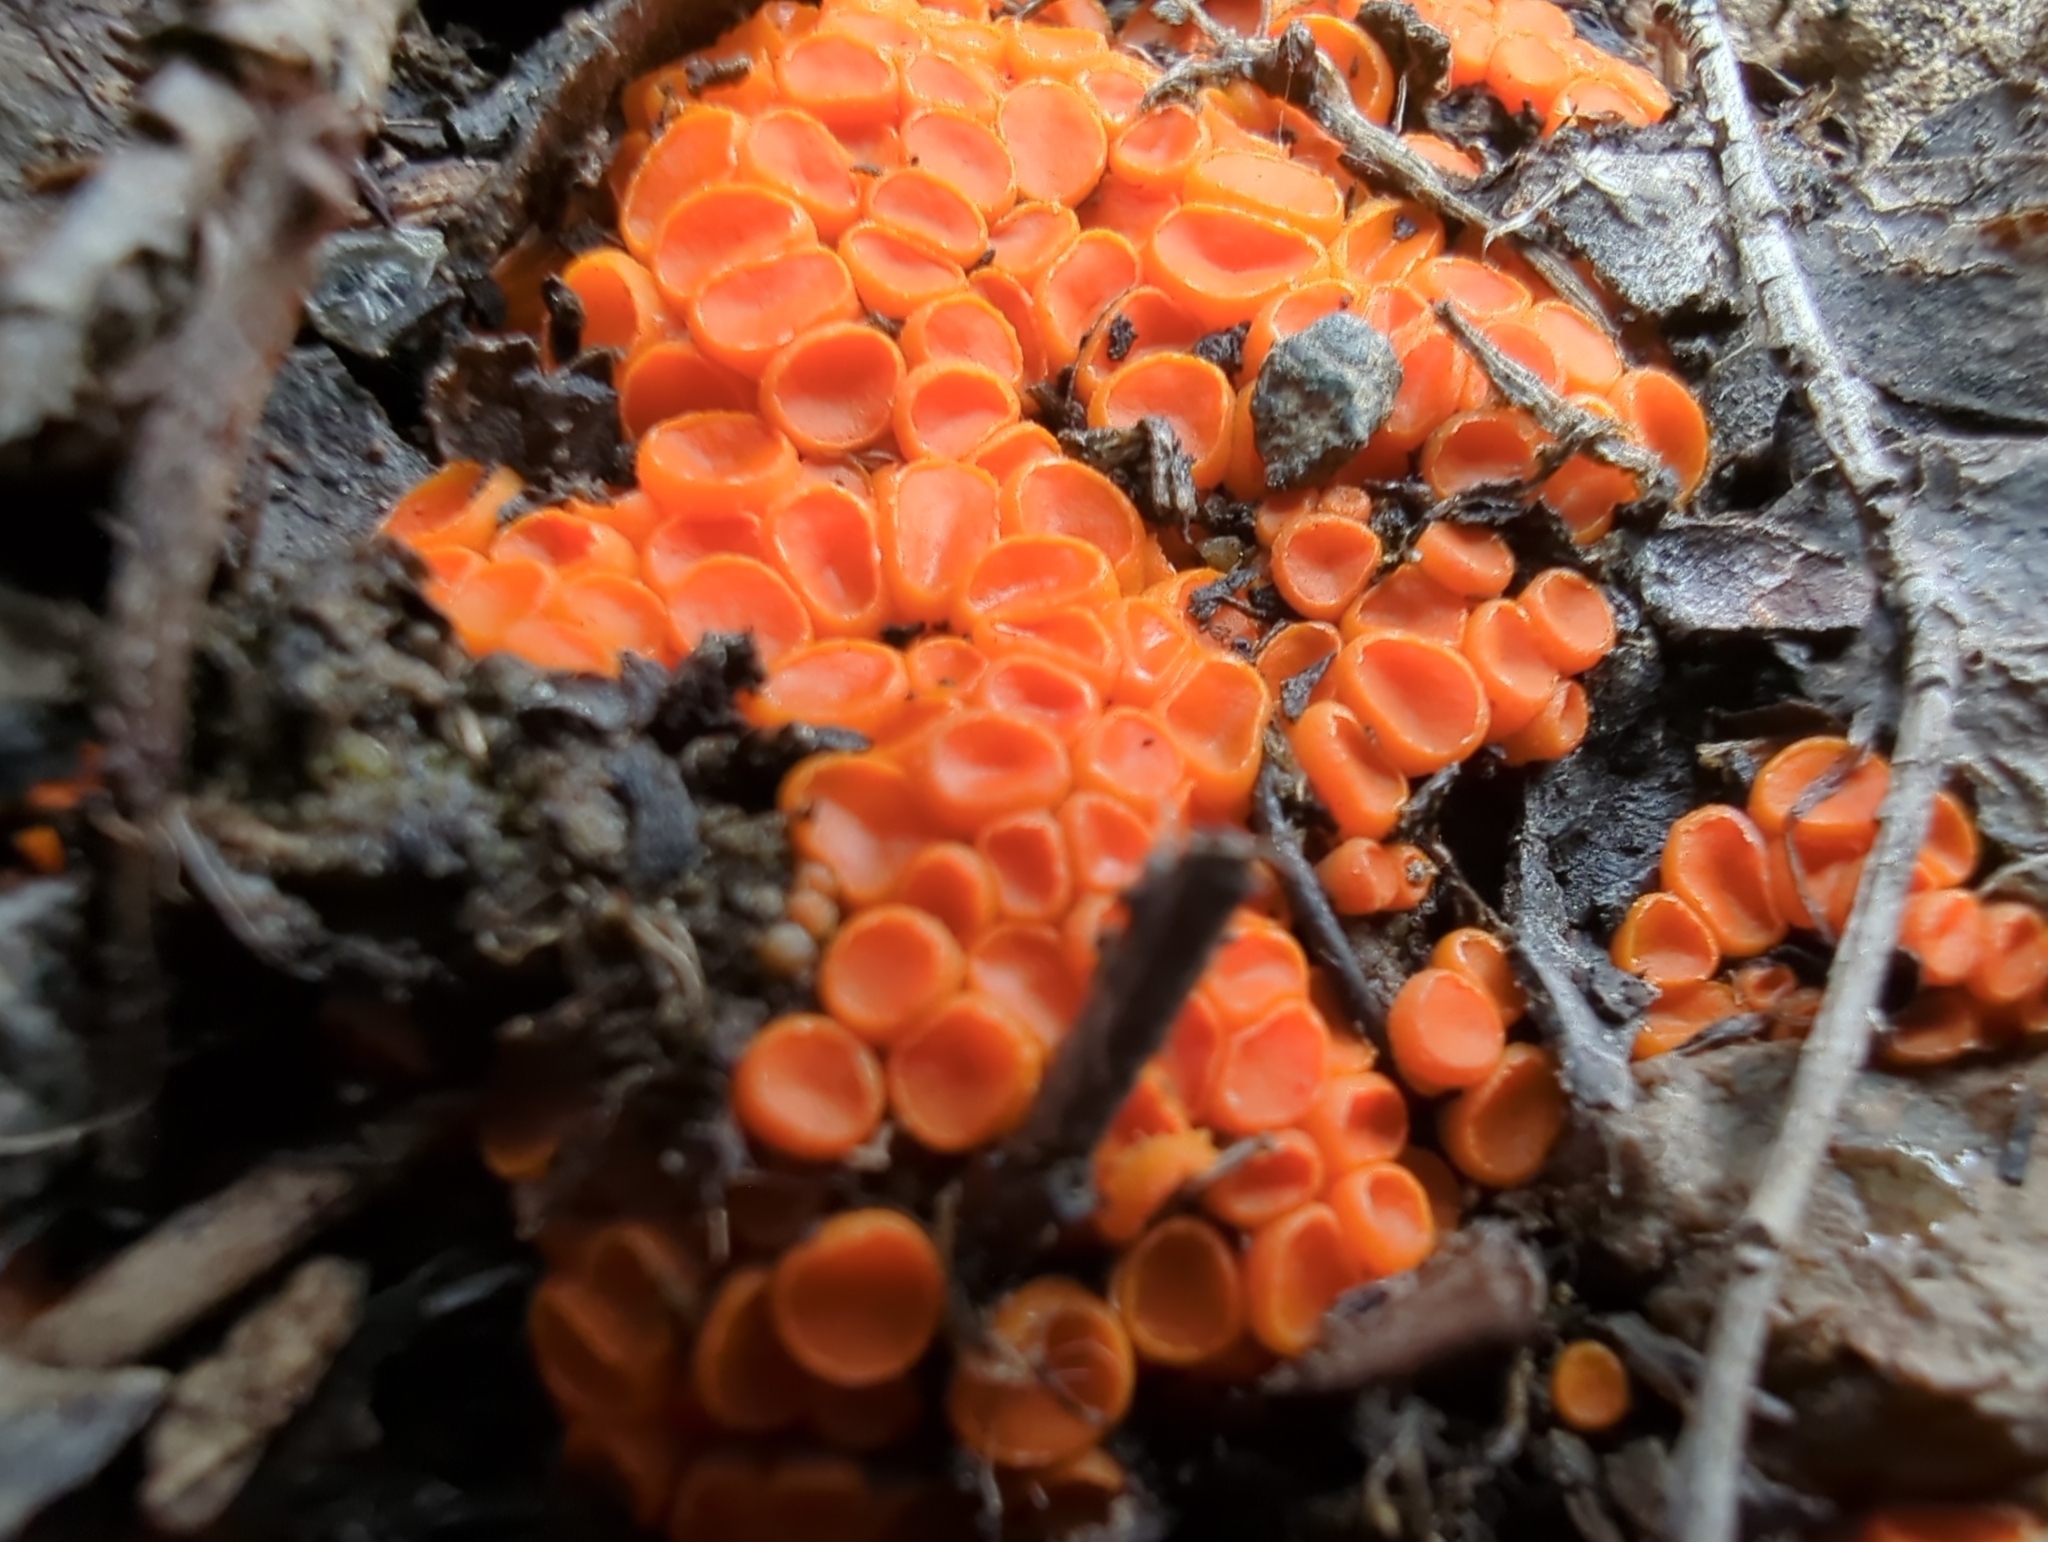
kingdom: Fungi
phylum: Ascomycota
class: Pezizomycetes
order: Pezizales
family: Pyronemataceae
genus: Byssonectria
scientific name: Byssonectria terrestris
